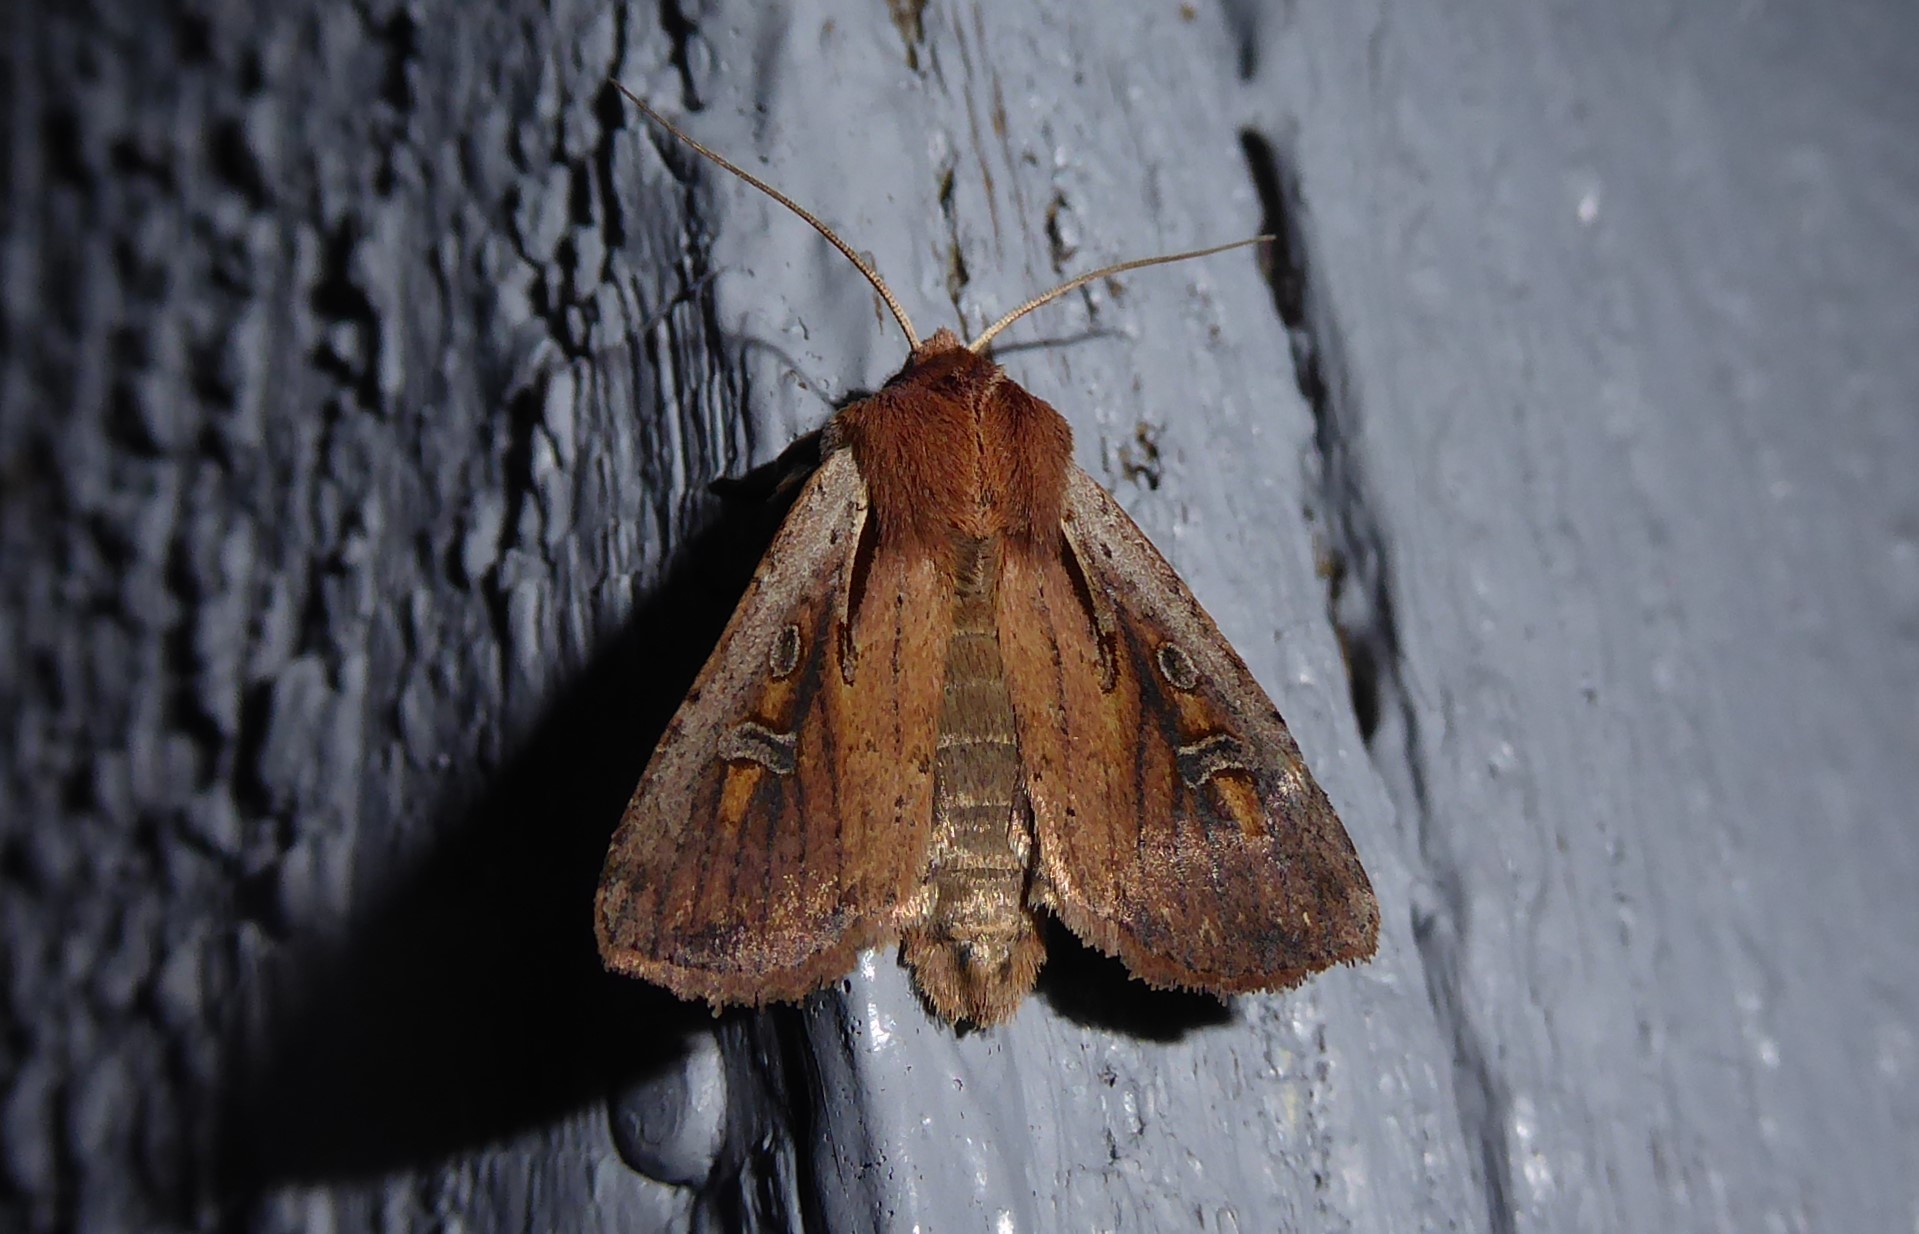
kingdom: Animalia
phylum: Arthropoda
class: Insecta
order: Lepidoptera
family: Noctuidae
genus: Ichneutica
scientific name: Ichneutica atristriga
